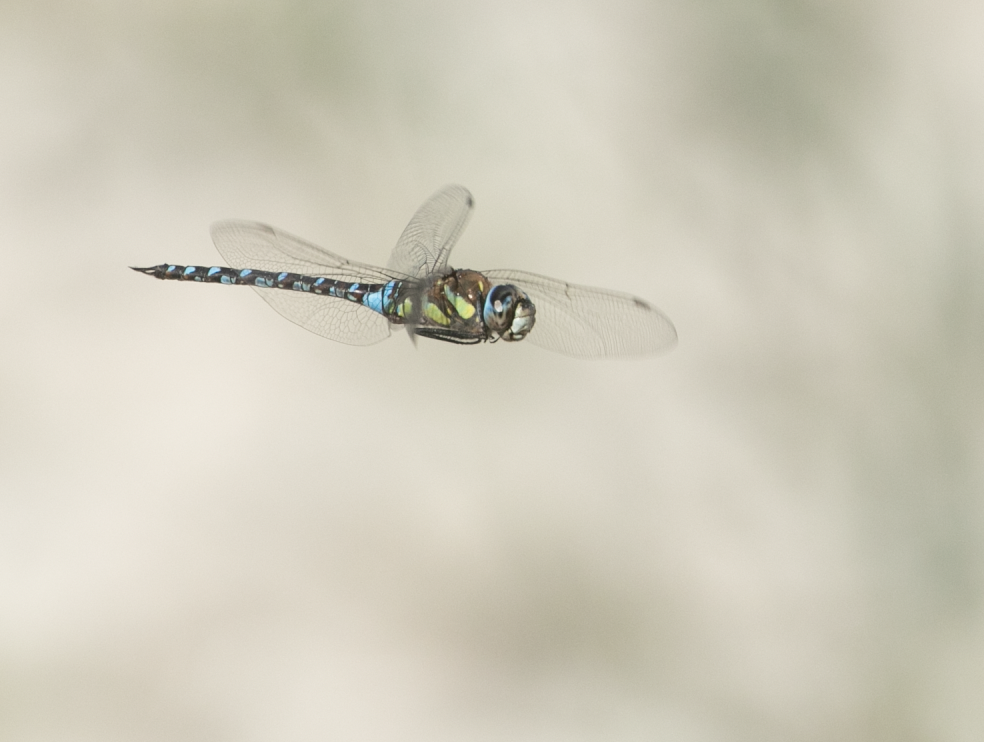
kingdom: Animalia
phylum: Arthropoda
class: Insecta
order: Odonata
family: Aeshnidae
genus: Aeshna
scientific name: Aeshna mixta
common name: Migrant hawker
